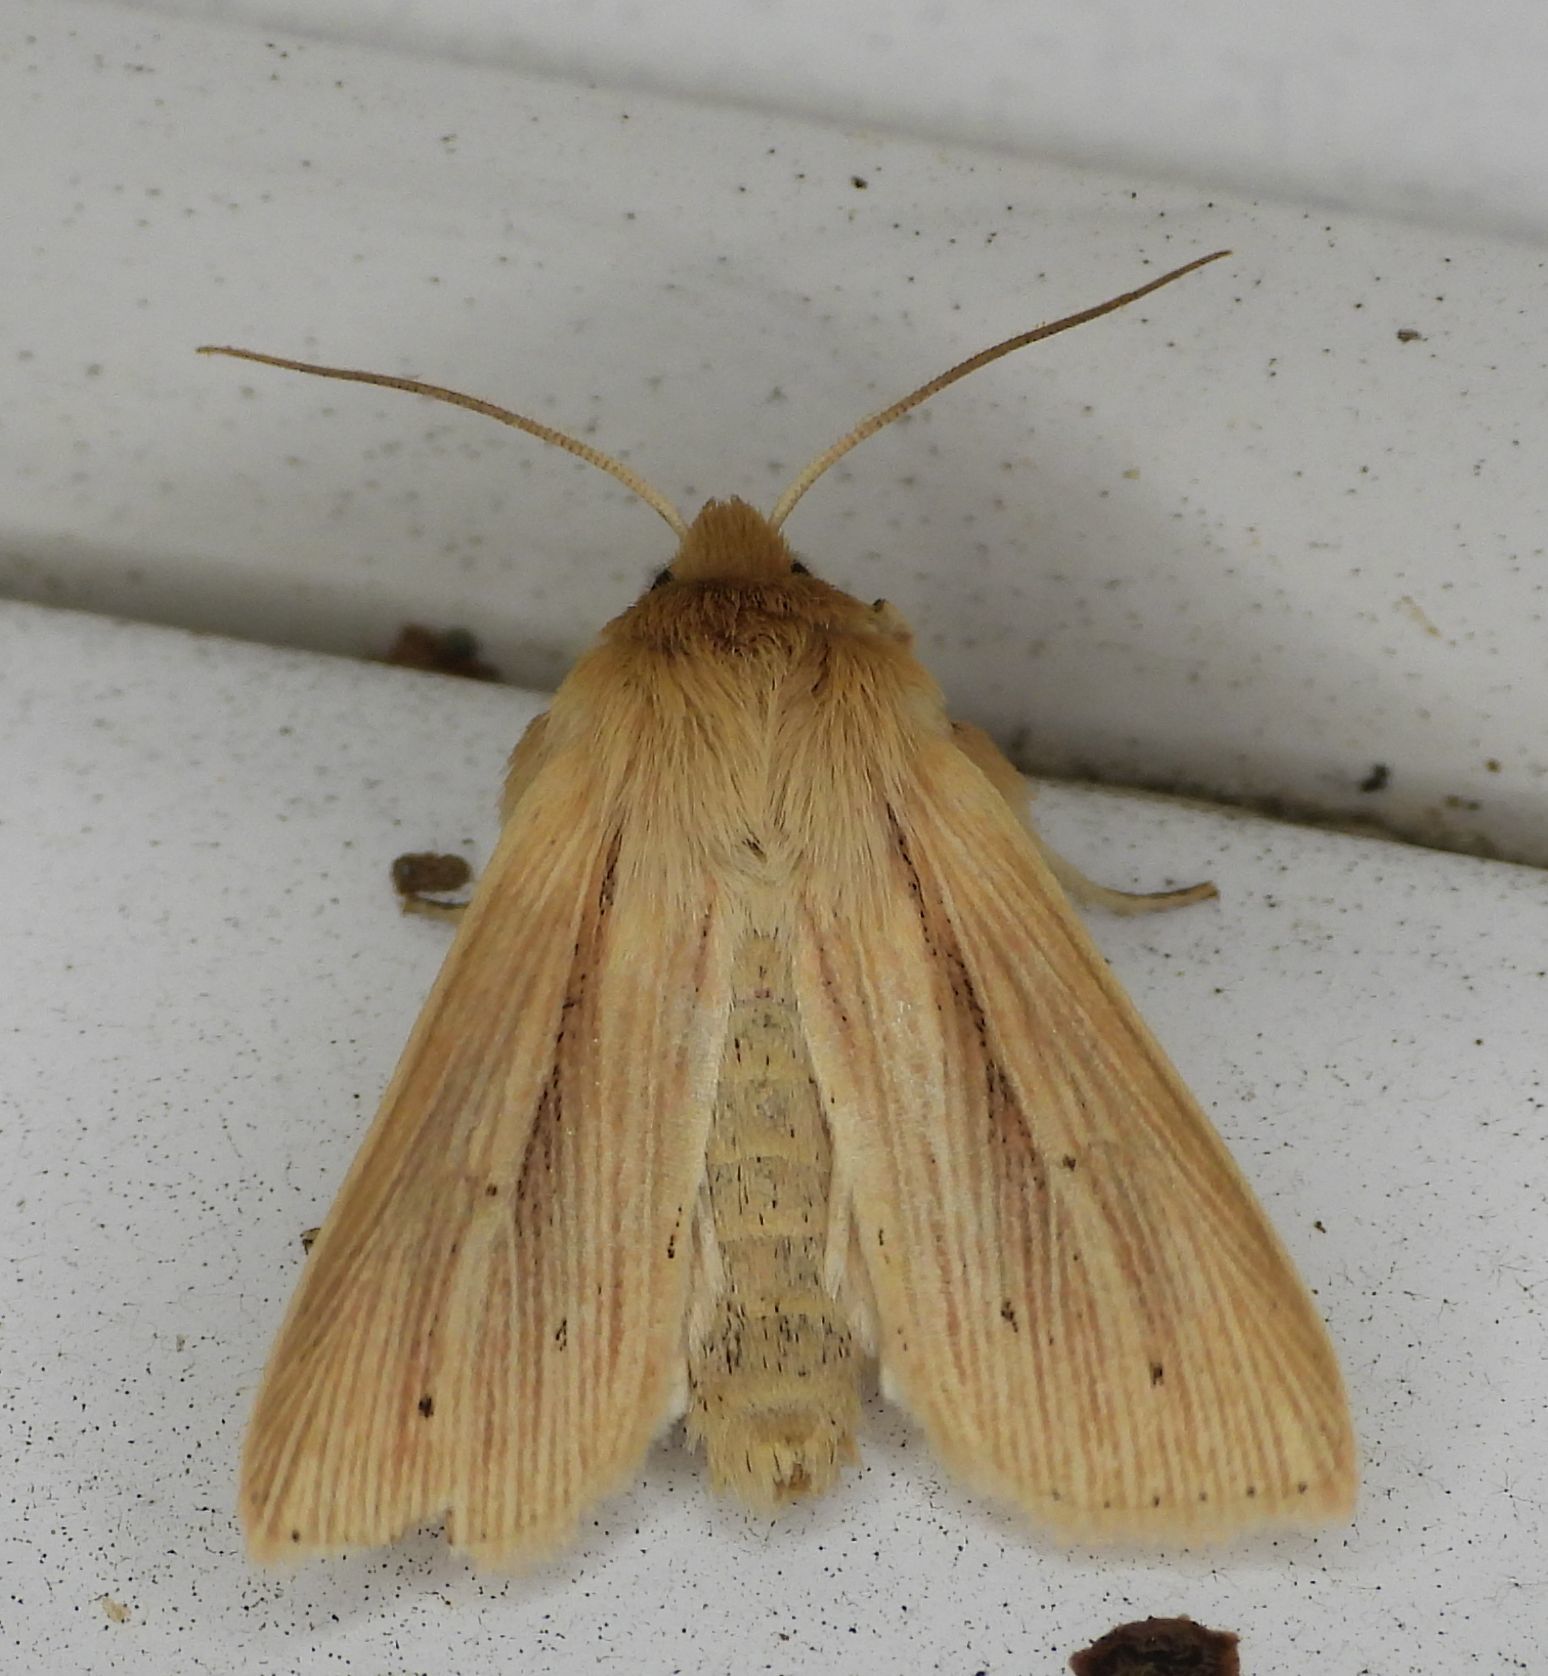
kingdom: Animalia
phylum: Arthropoda
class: Insecta
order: Lepidoptera
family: Noctuidae
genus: Mythimna
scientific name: Mythimna oxygala
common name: Lesser wainscot
